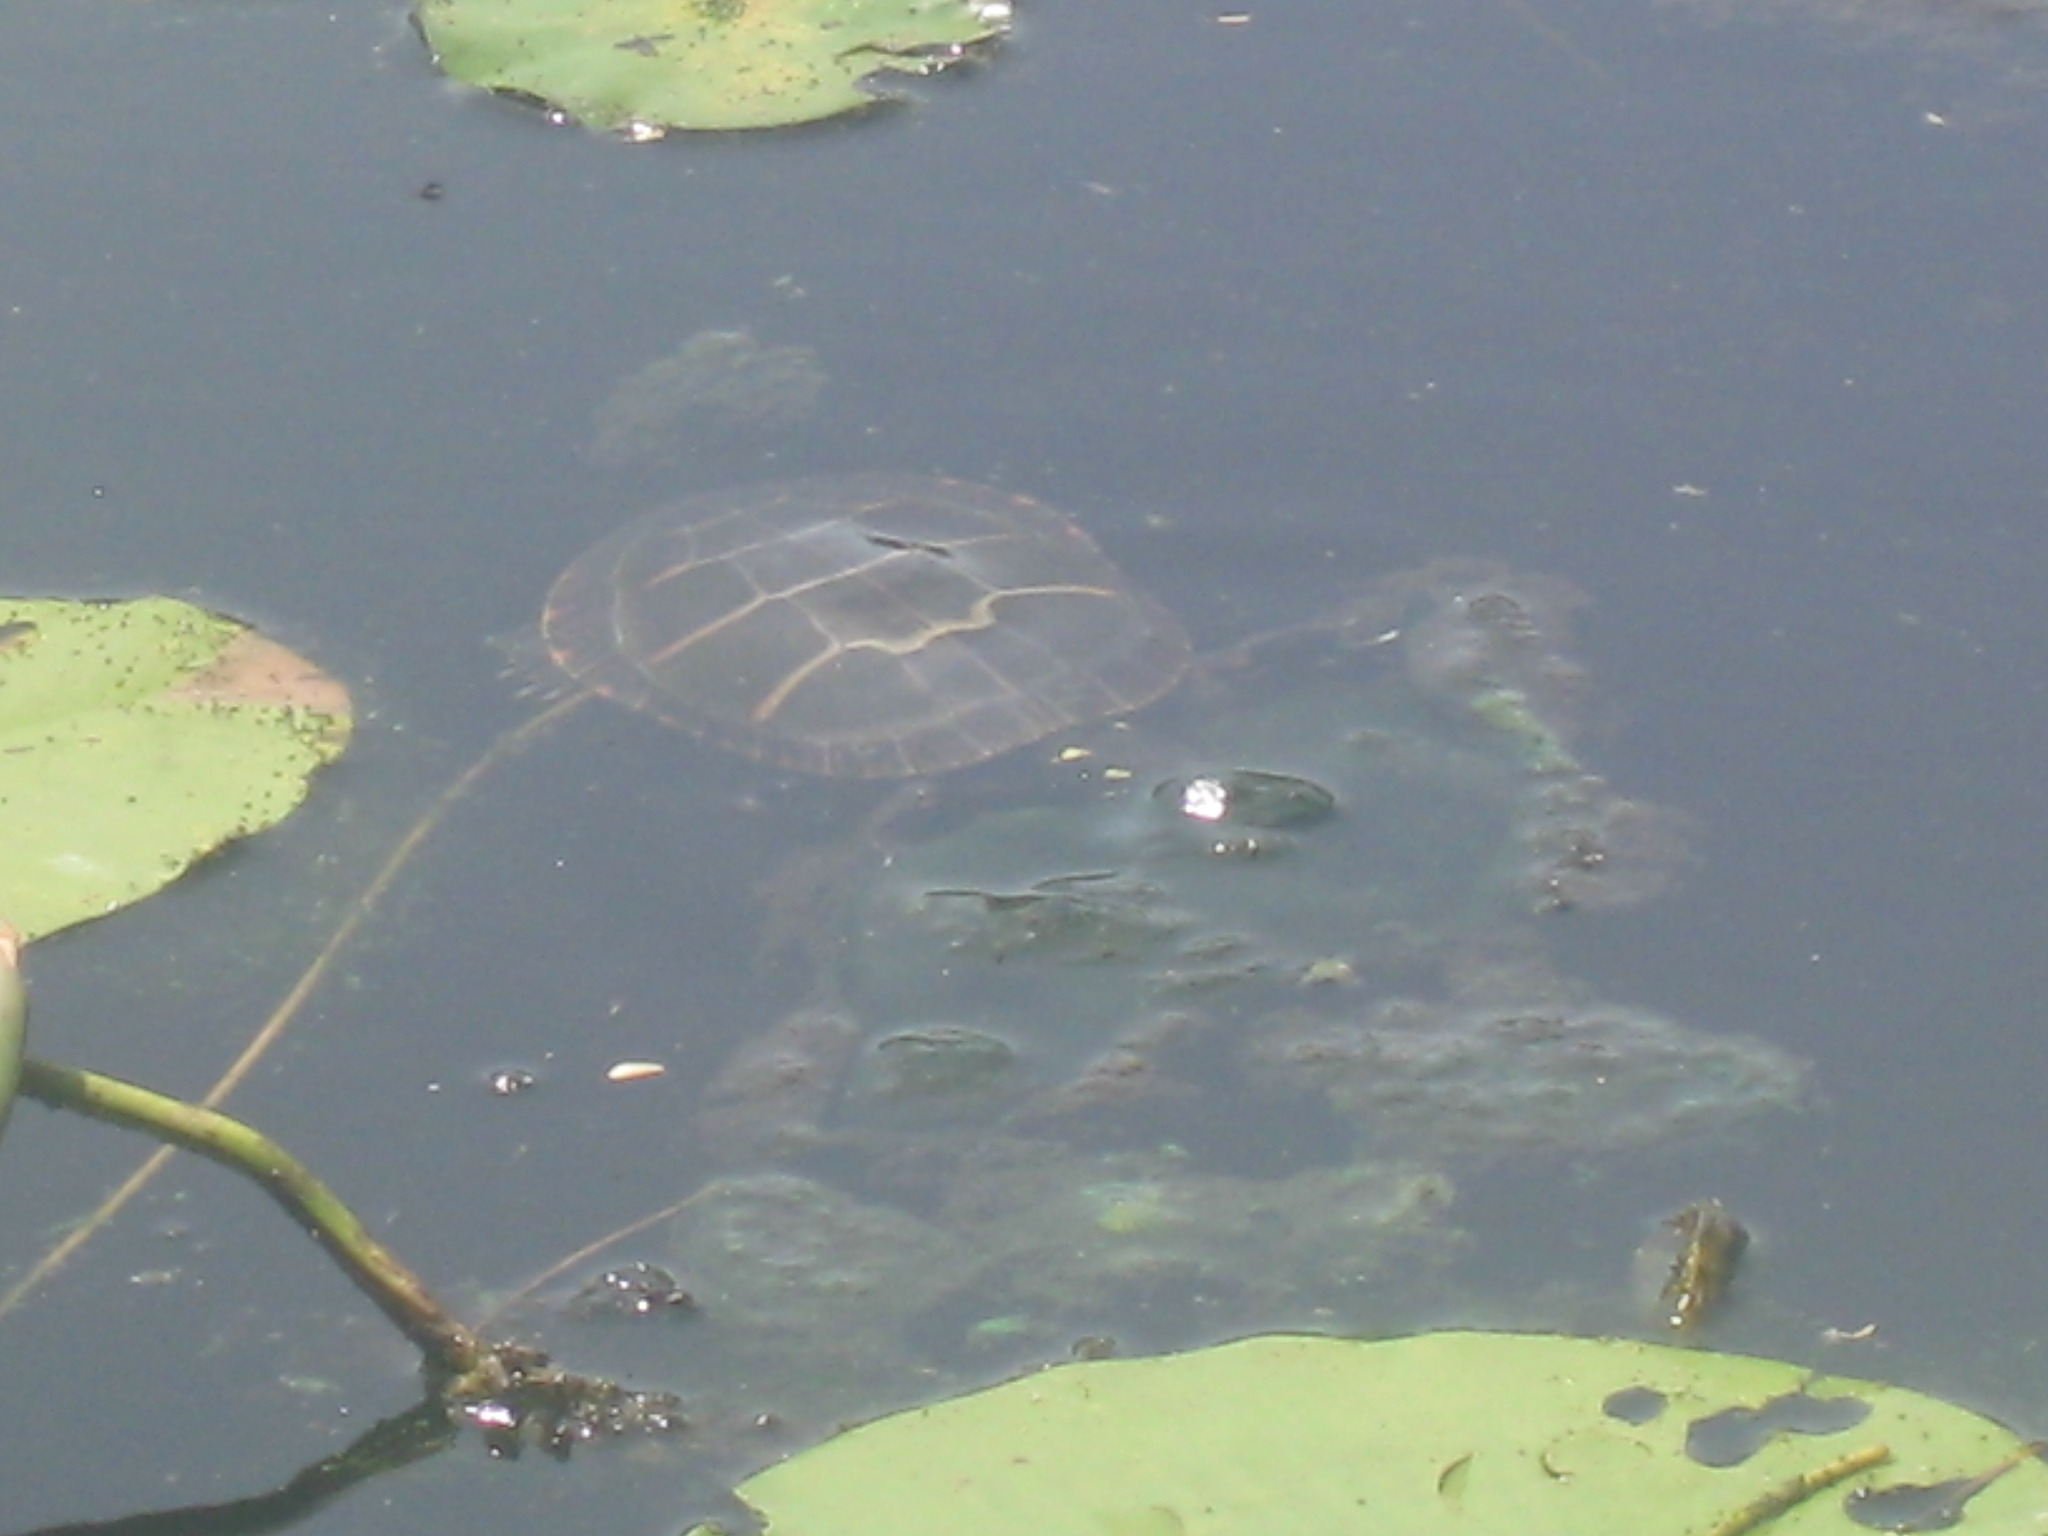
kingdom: Animalia
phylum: Chordata
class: Testudines
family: Emydidae
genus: Chrysemys
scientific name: Chrysemys picta
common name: Painted turtle
